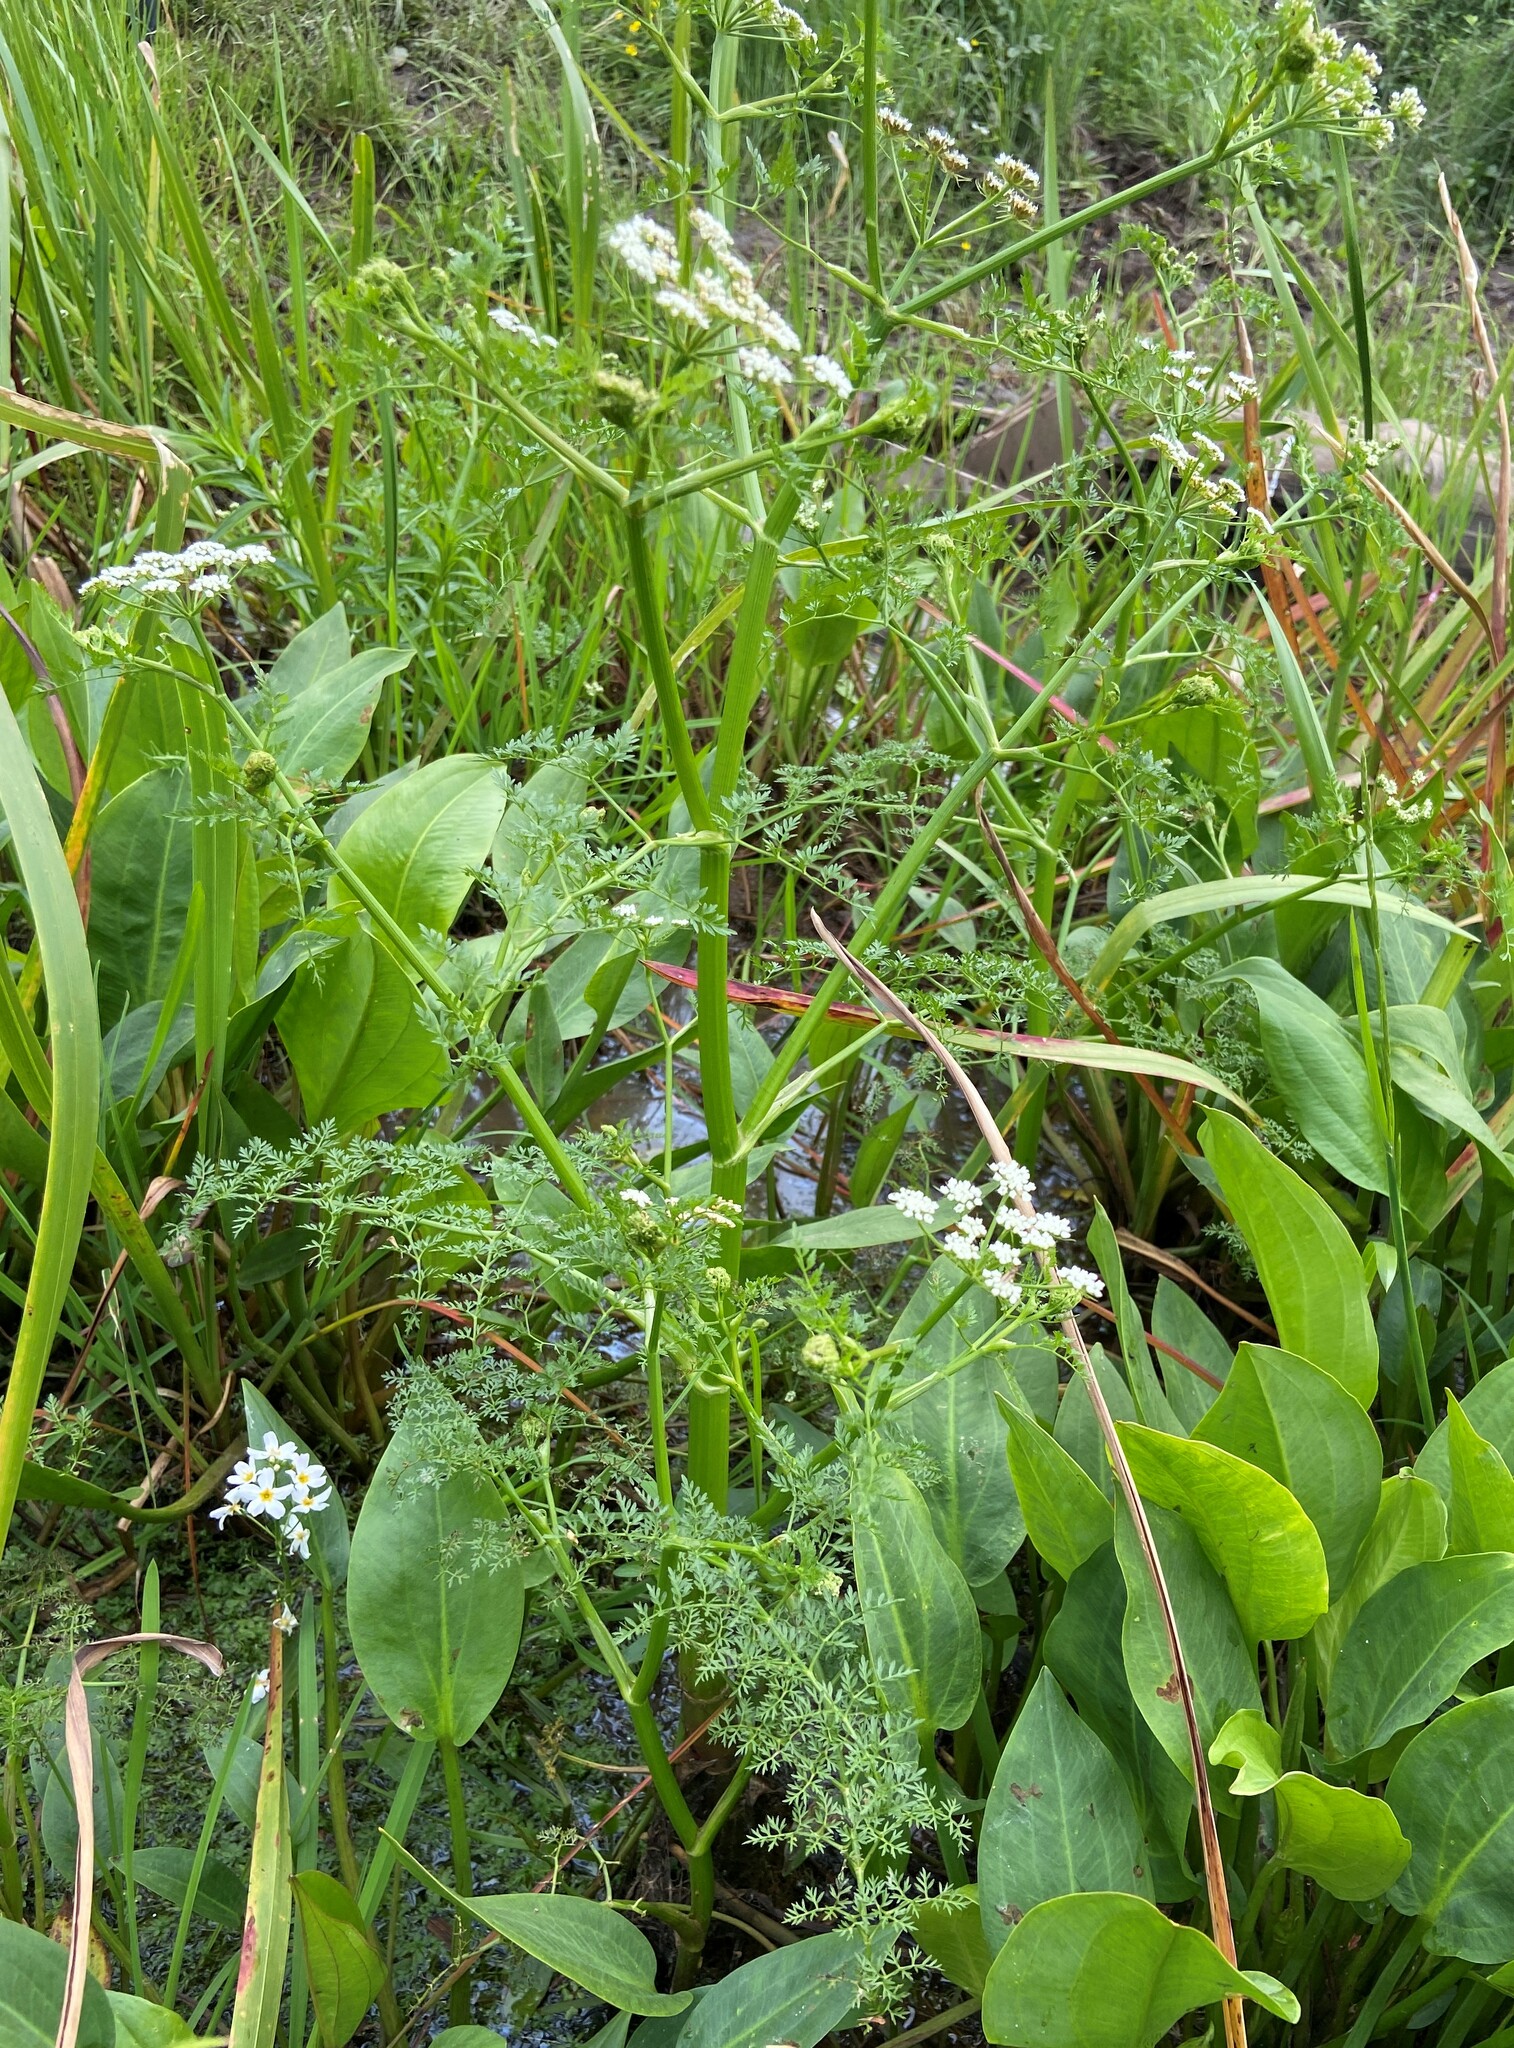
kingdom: Plantae
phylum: Tracheophyta
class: Magnoliopsida
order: Apiales
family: Apiaceae
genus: Oenanthe
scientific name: Oenanthe aquatica
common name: Fine-leaved water-dropwort
